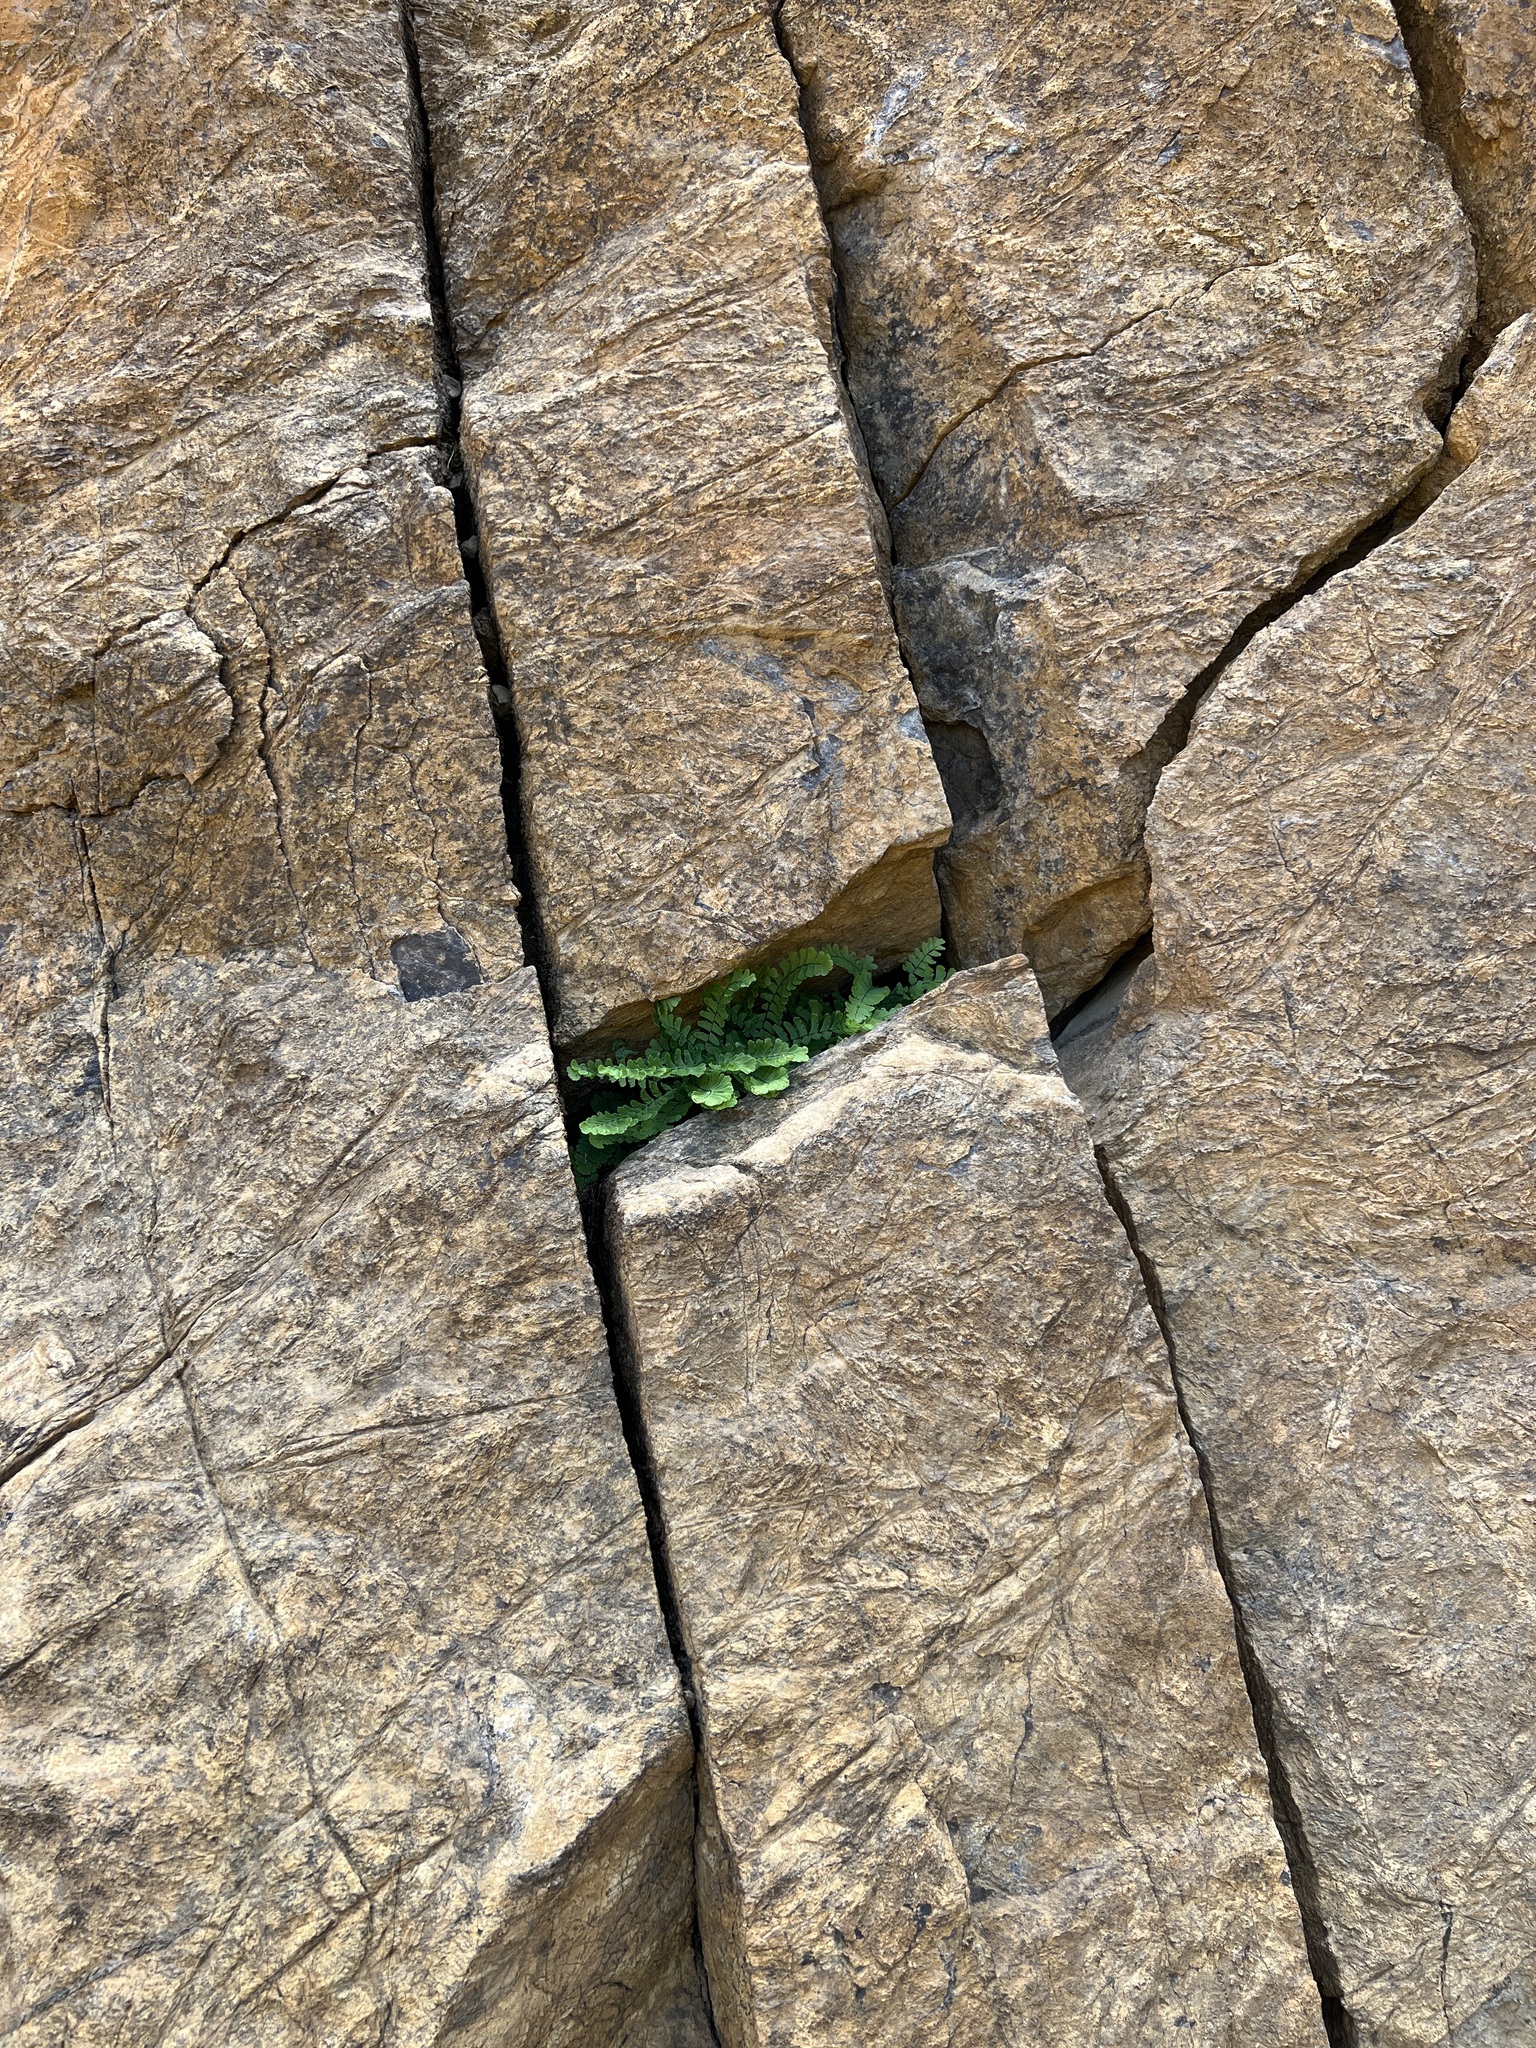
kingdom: Plantae
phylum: Tracheophyta
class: Polypodiopsida
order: Polypodiales
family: Pteridaceae
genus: Adiantum
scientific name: Adiantum aleuticum
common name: Aleutian maidenhair fern
